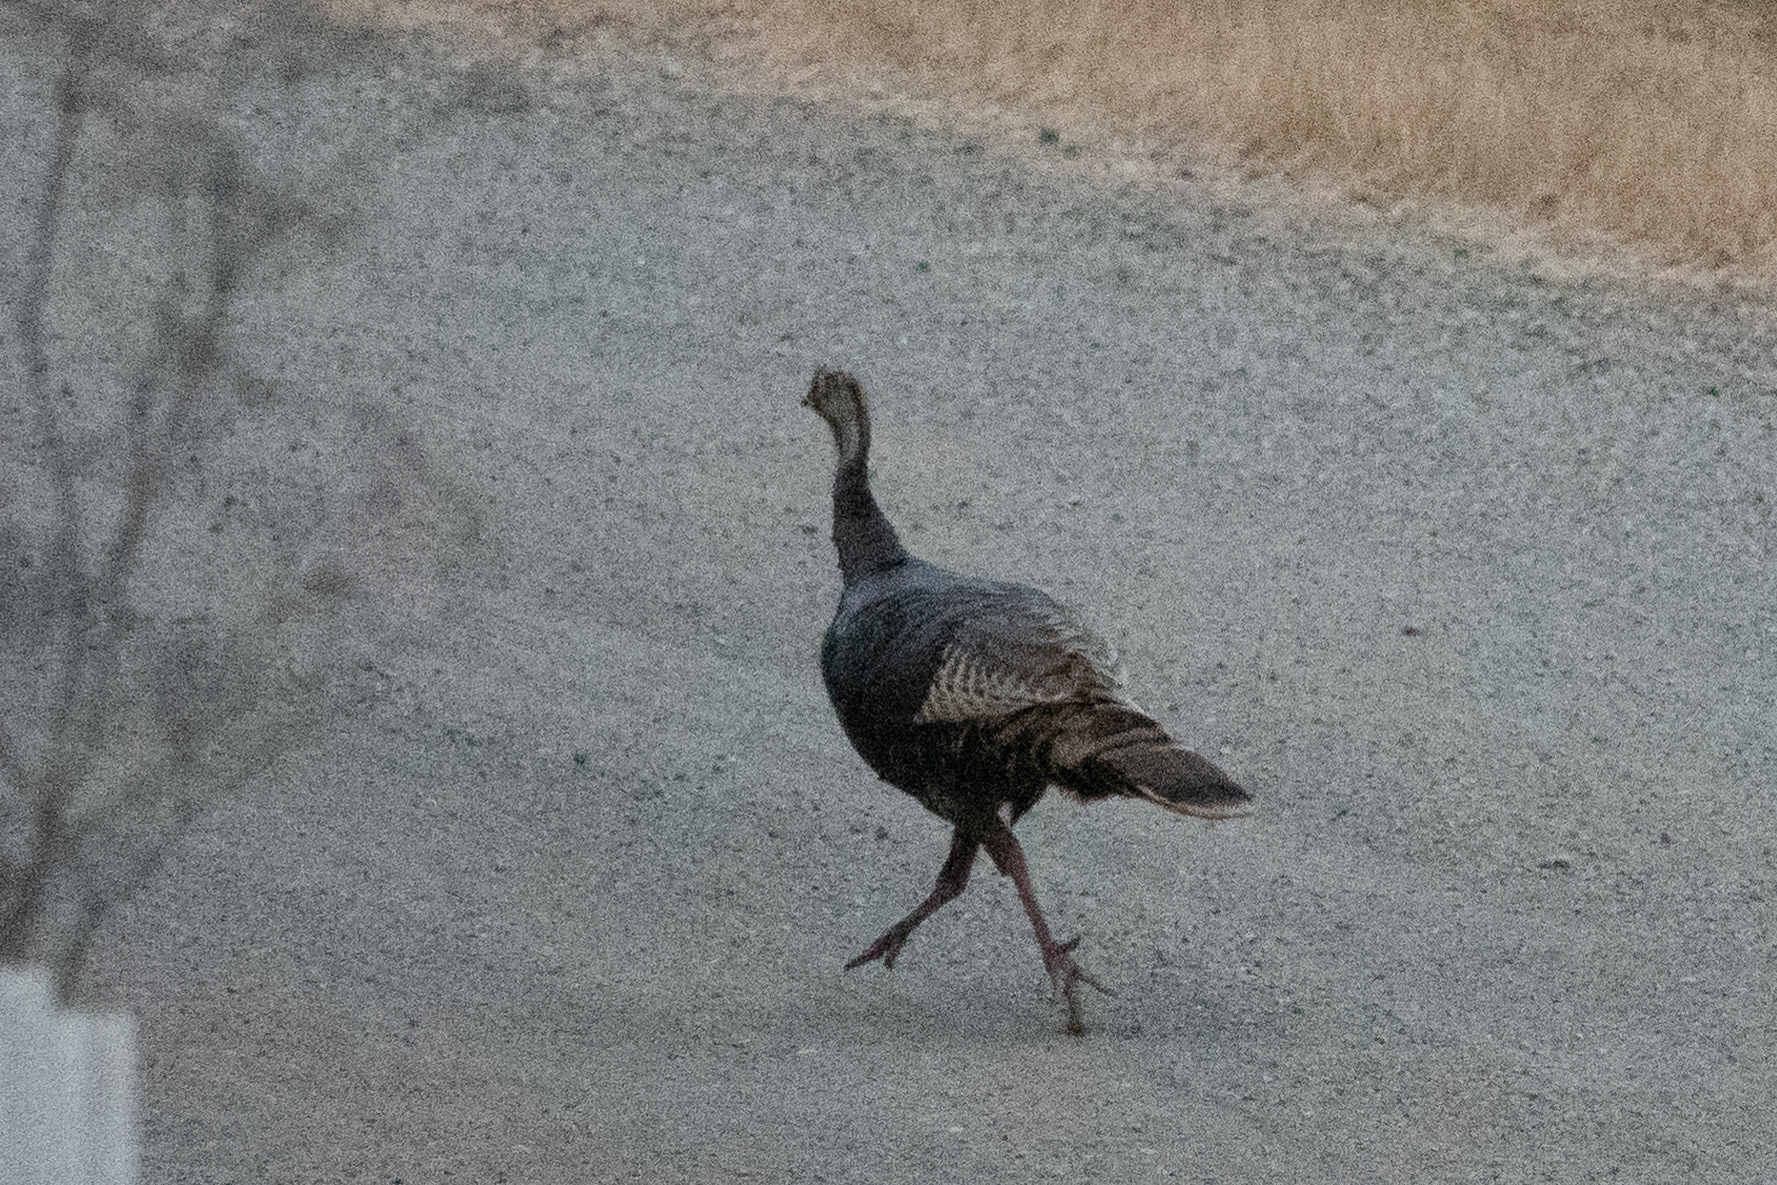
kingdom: Animalia
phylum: Chordata
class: Aves
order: Galliformes
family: Phasianidae
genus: Meleagris
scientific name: Meleagris gallopavo
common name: Wild turkey
